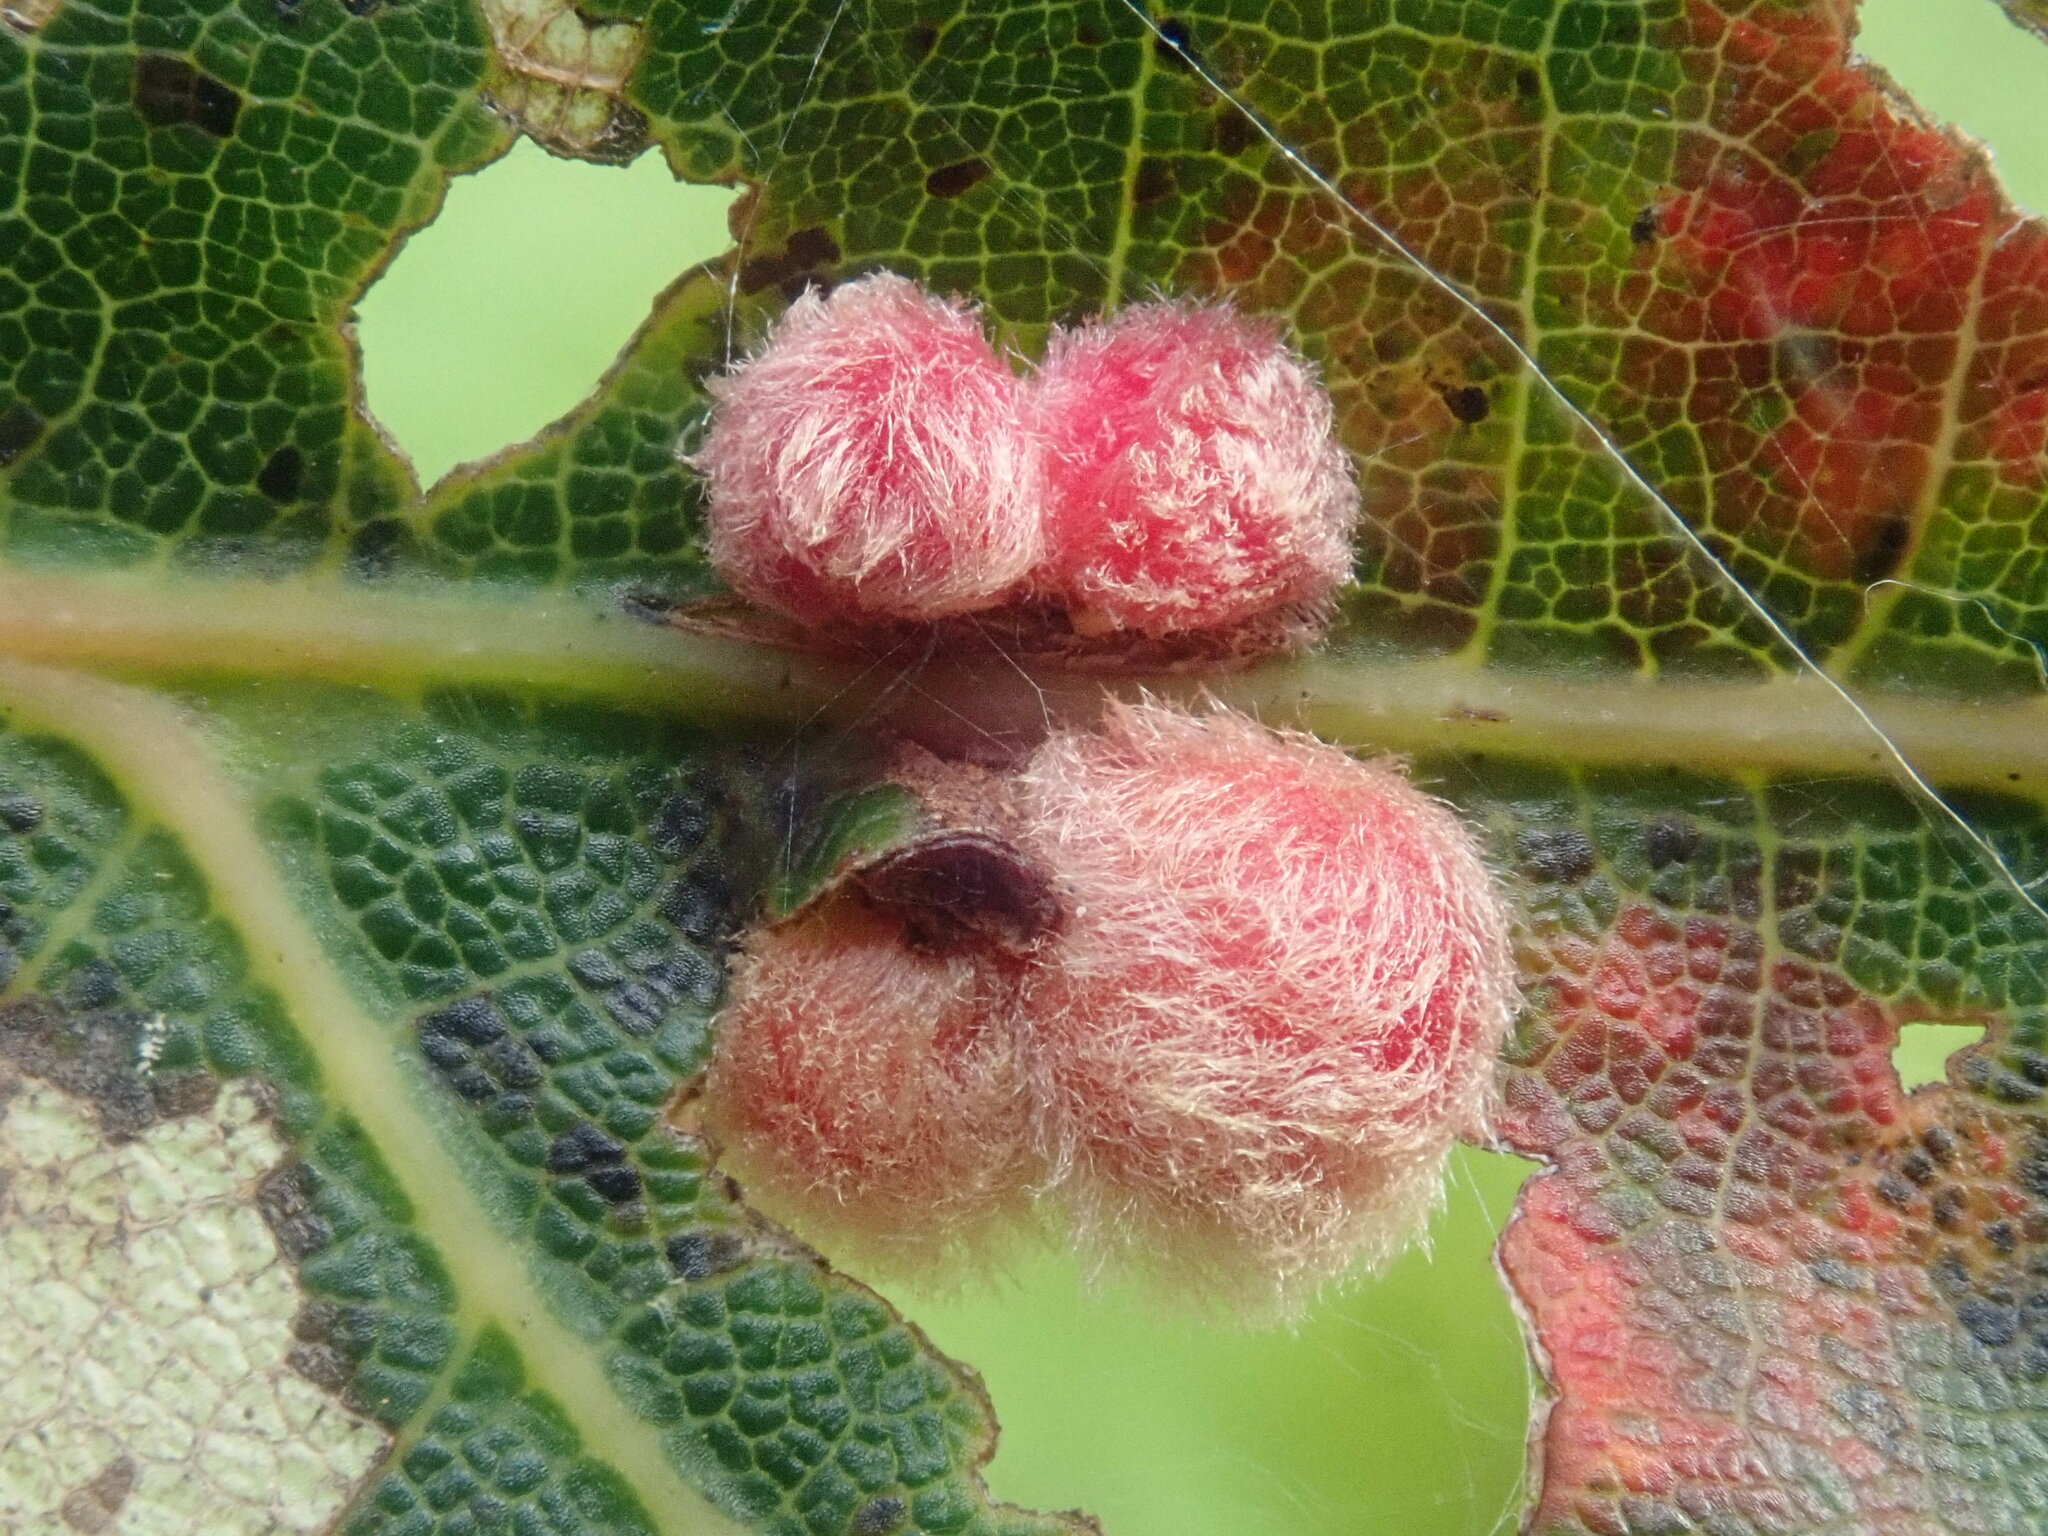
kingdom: Animalia
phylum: Arthropoda
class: Insecta
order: Hymenoptera
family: Cynipidae
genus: Callirhytis
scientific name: Callirhytis
